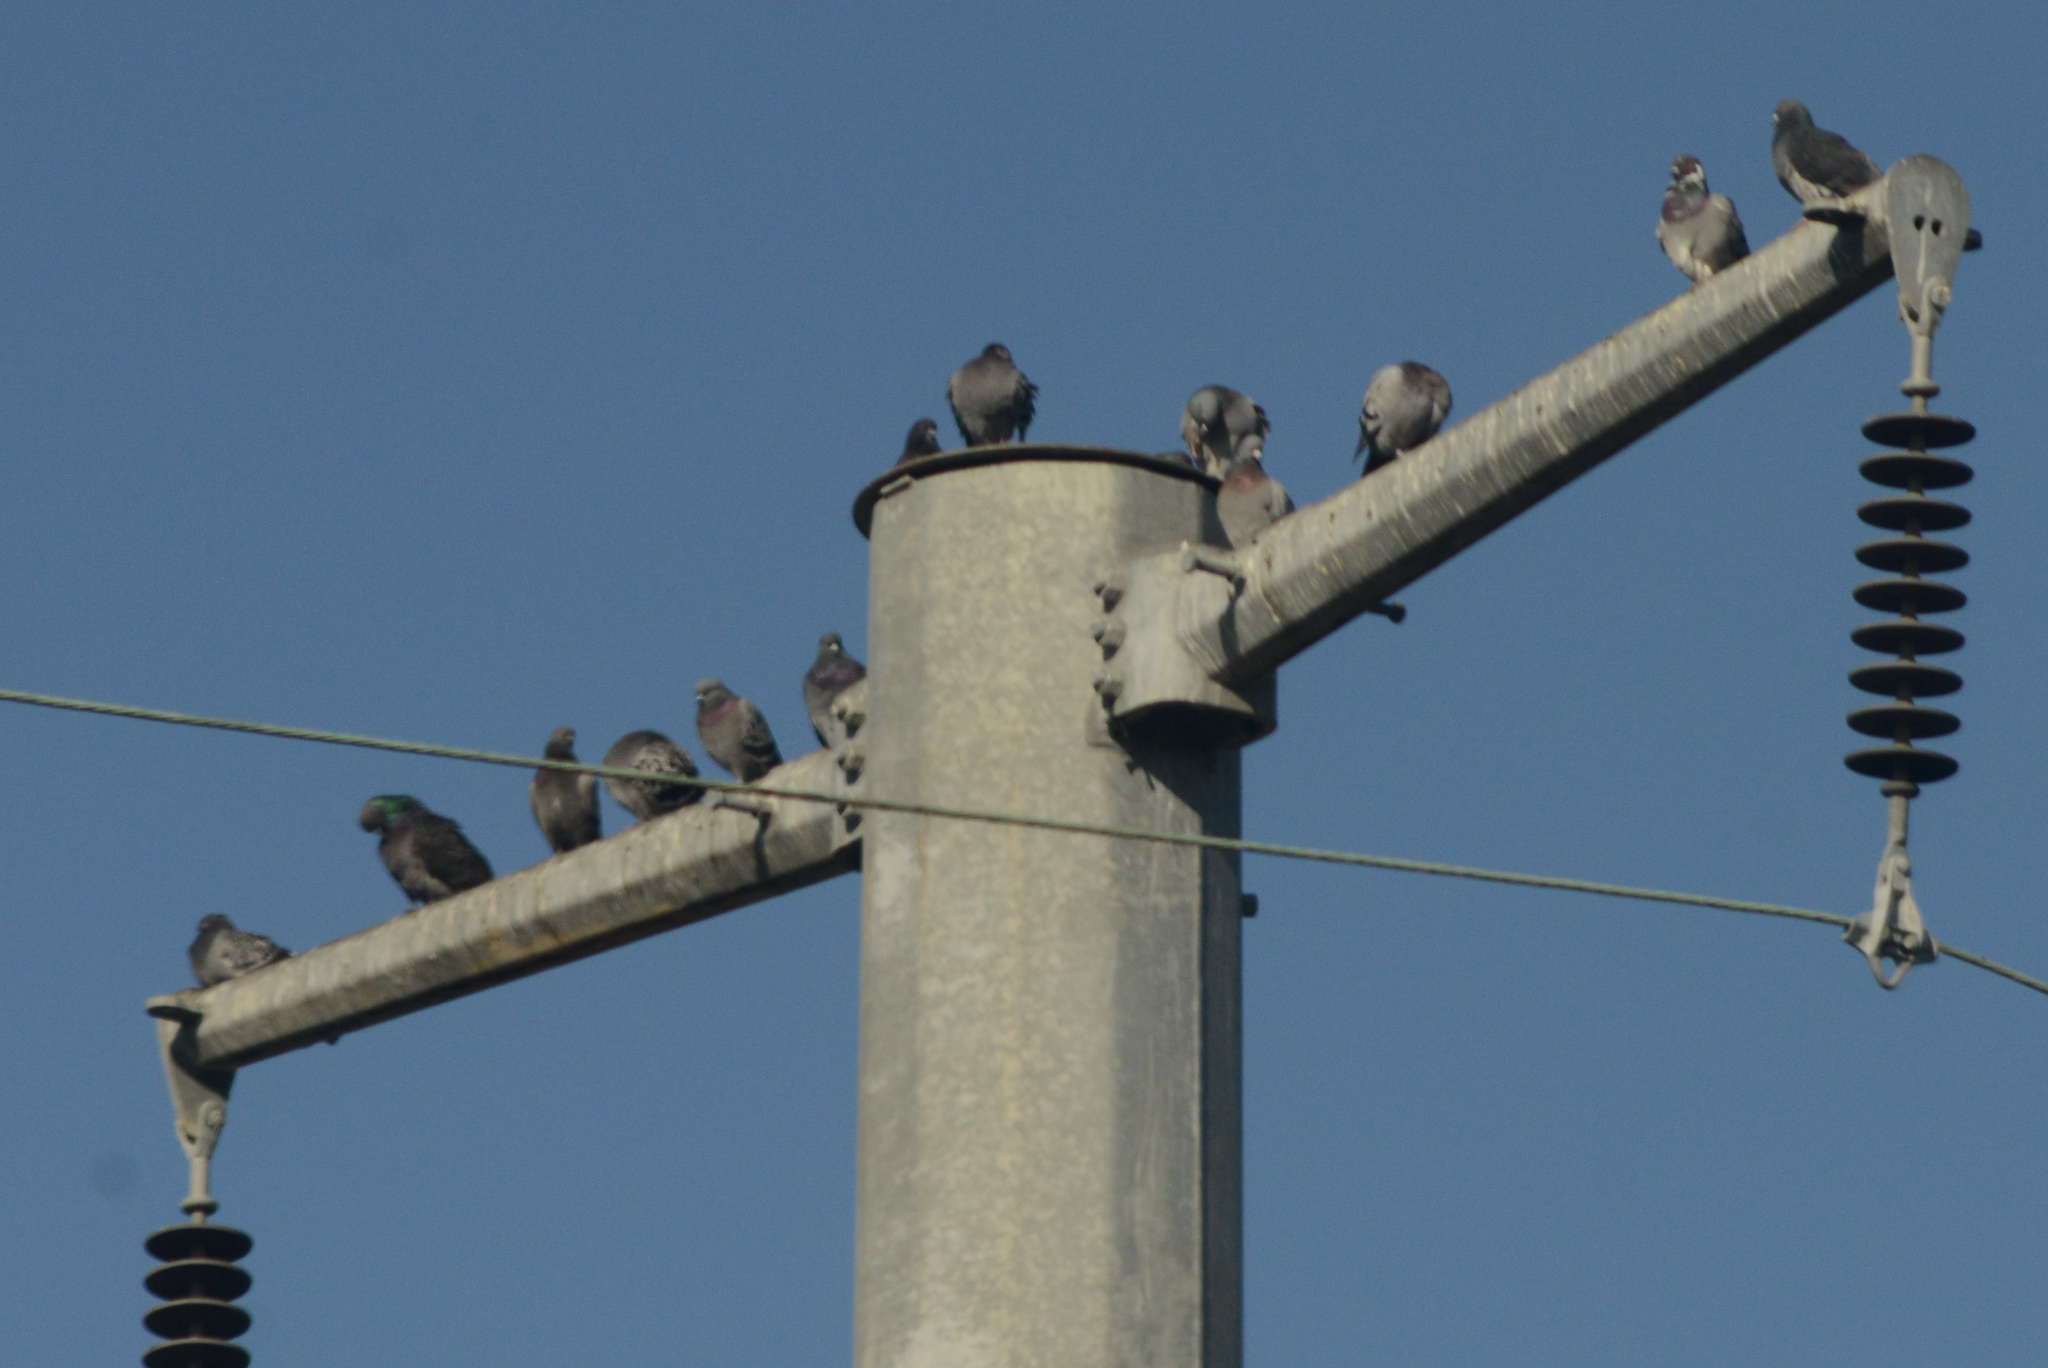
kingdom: Animalia
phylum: Chordata
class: Aves
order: Columbiformes
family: Columbidae
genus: Columba
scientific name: Columba livia
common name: Rock pigeon
